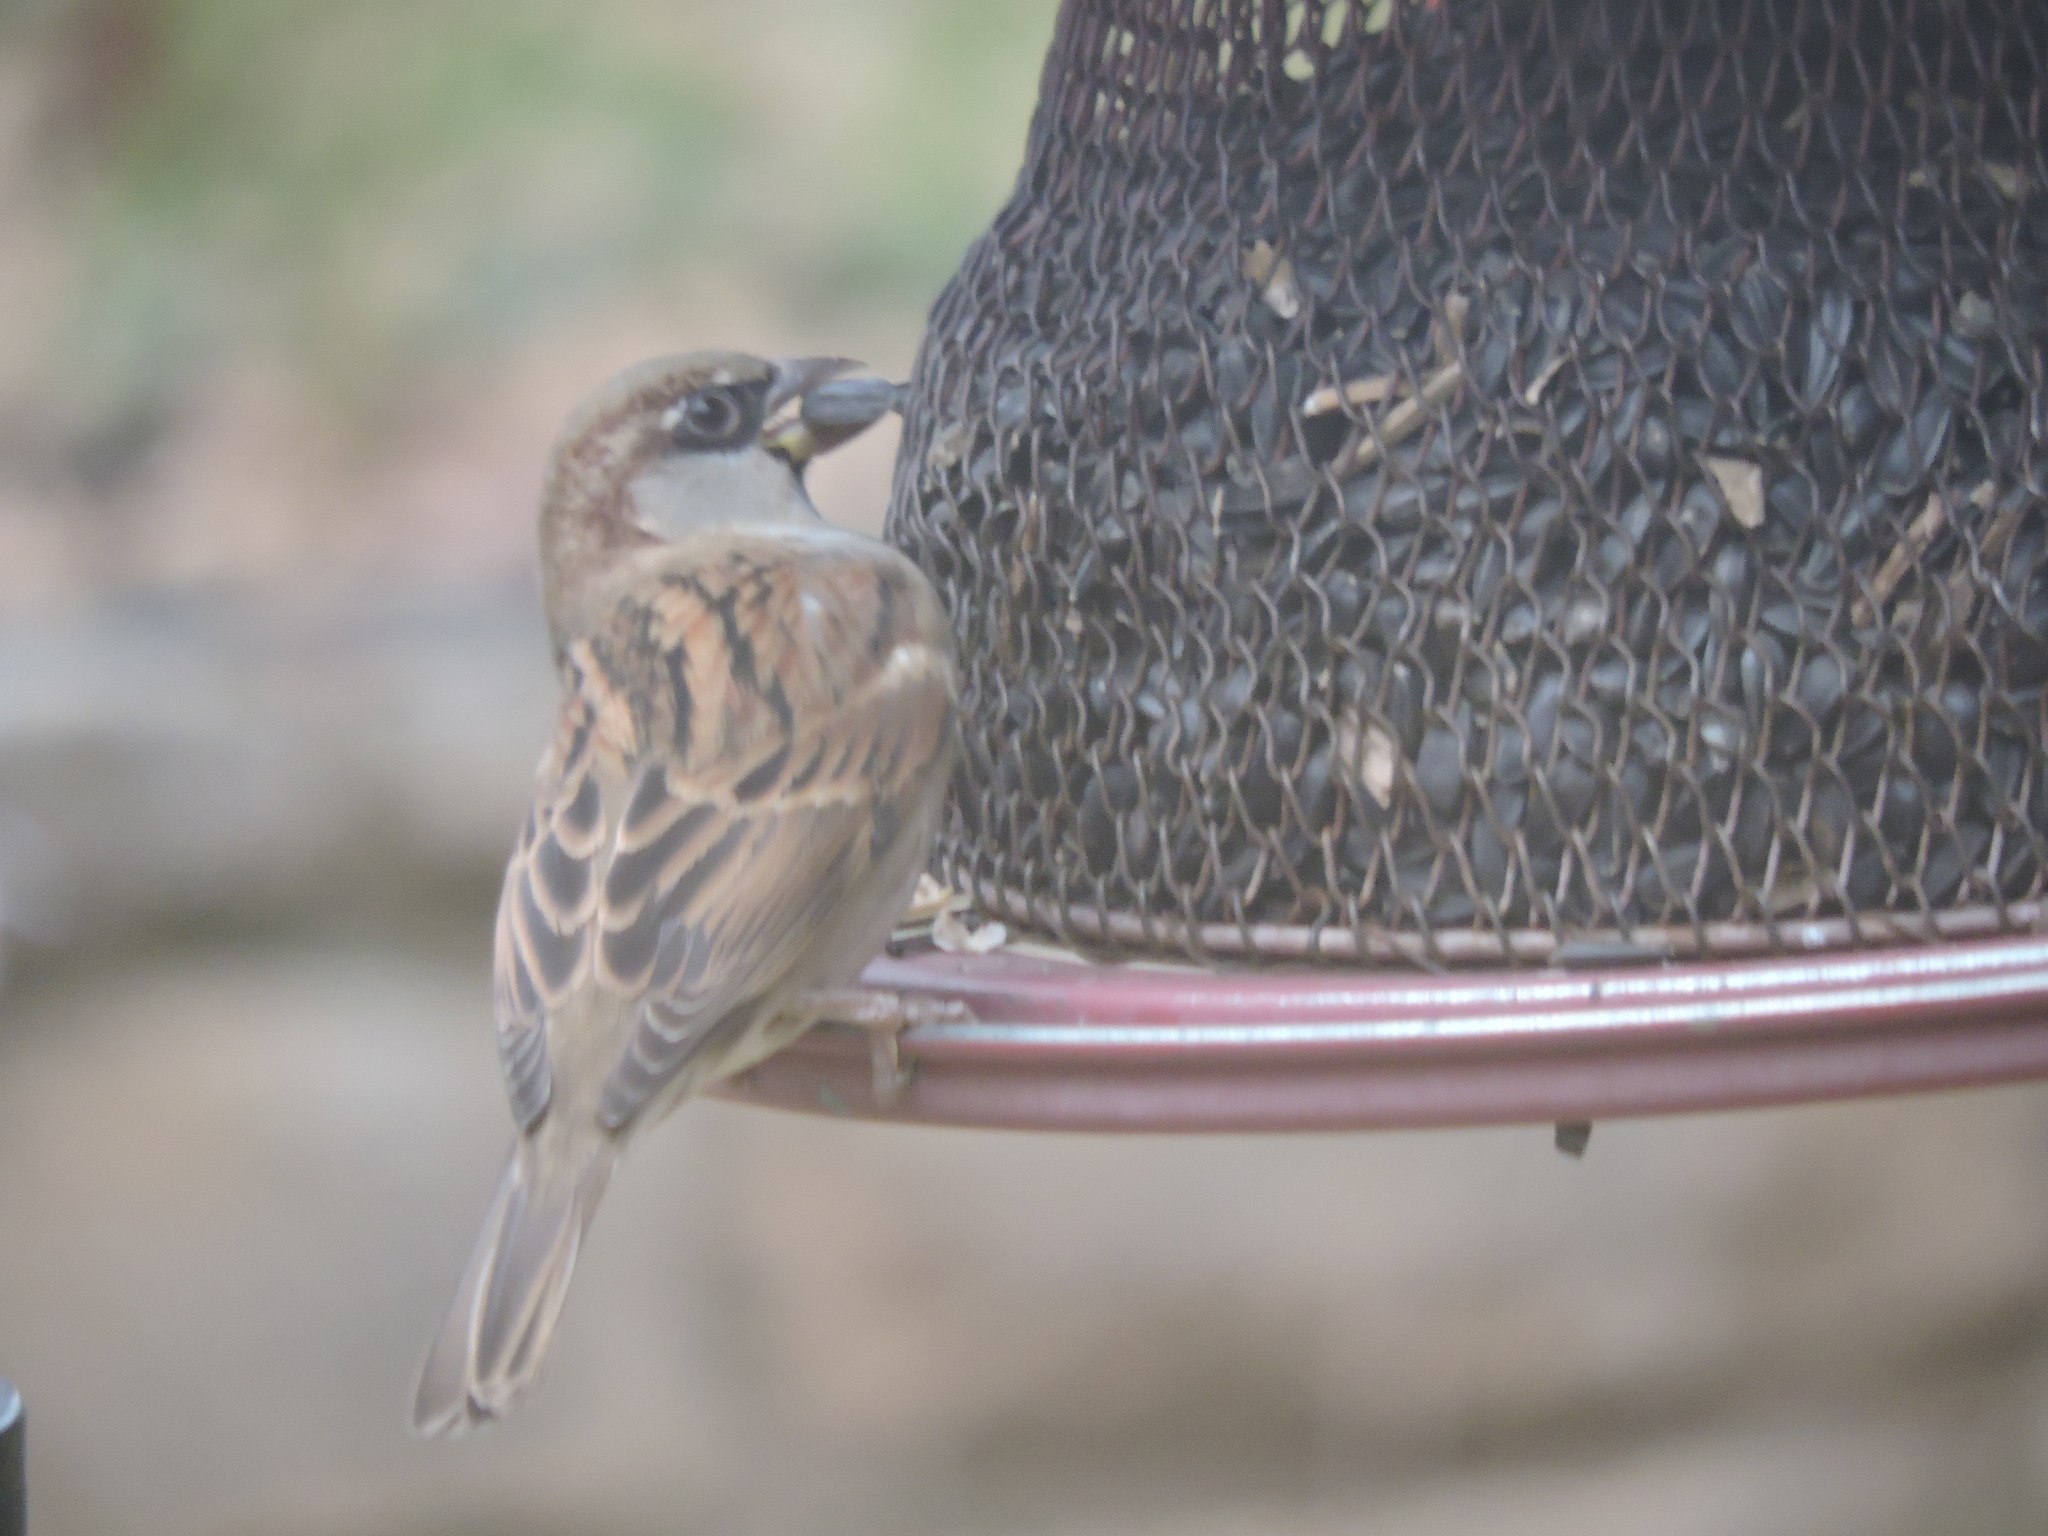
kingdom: Animalia
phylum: Chordata
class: Aves
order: Passeriformes
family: Passeridae
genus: Passer
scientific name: Passer domesticus
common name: House sparrow
